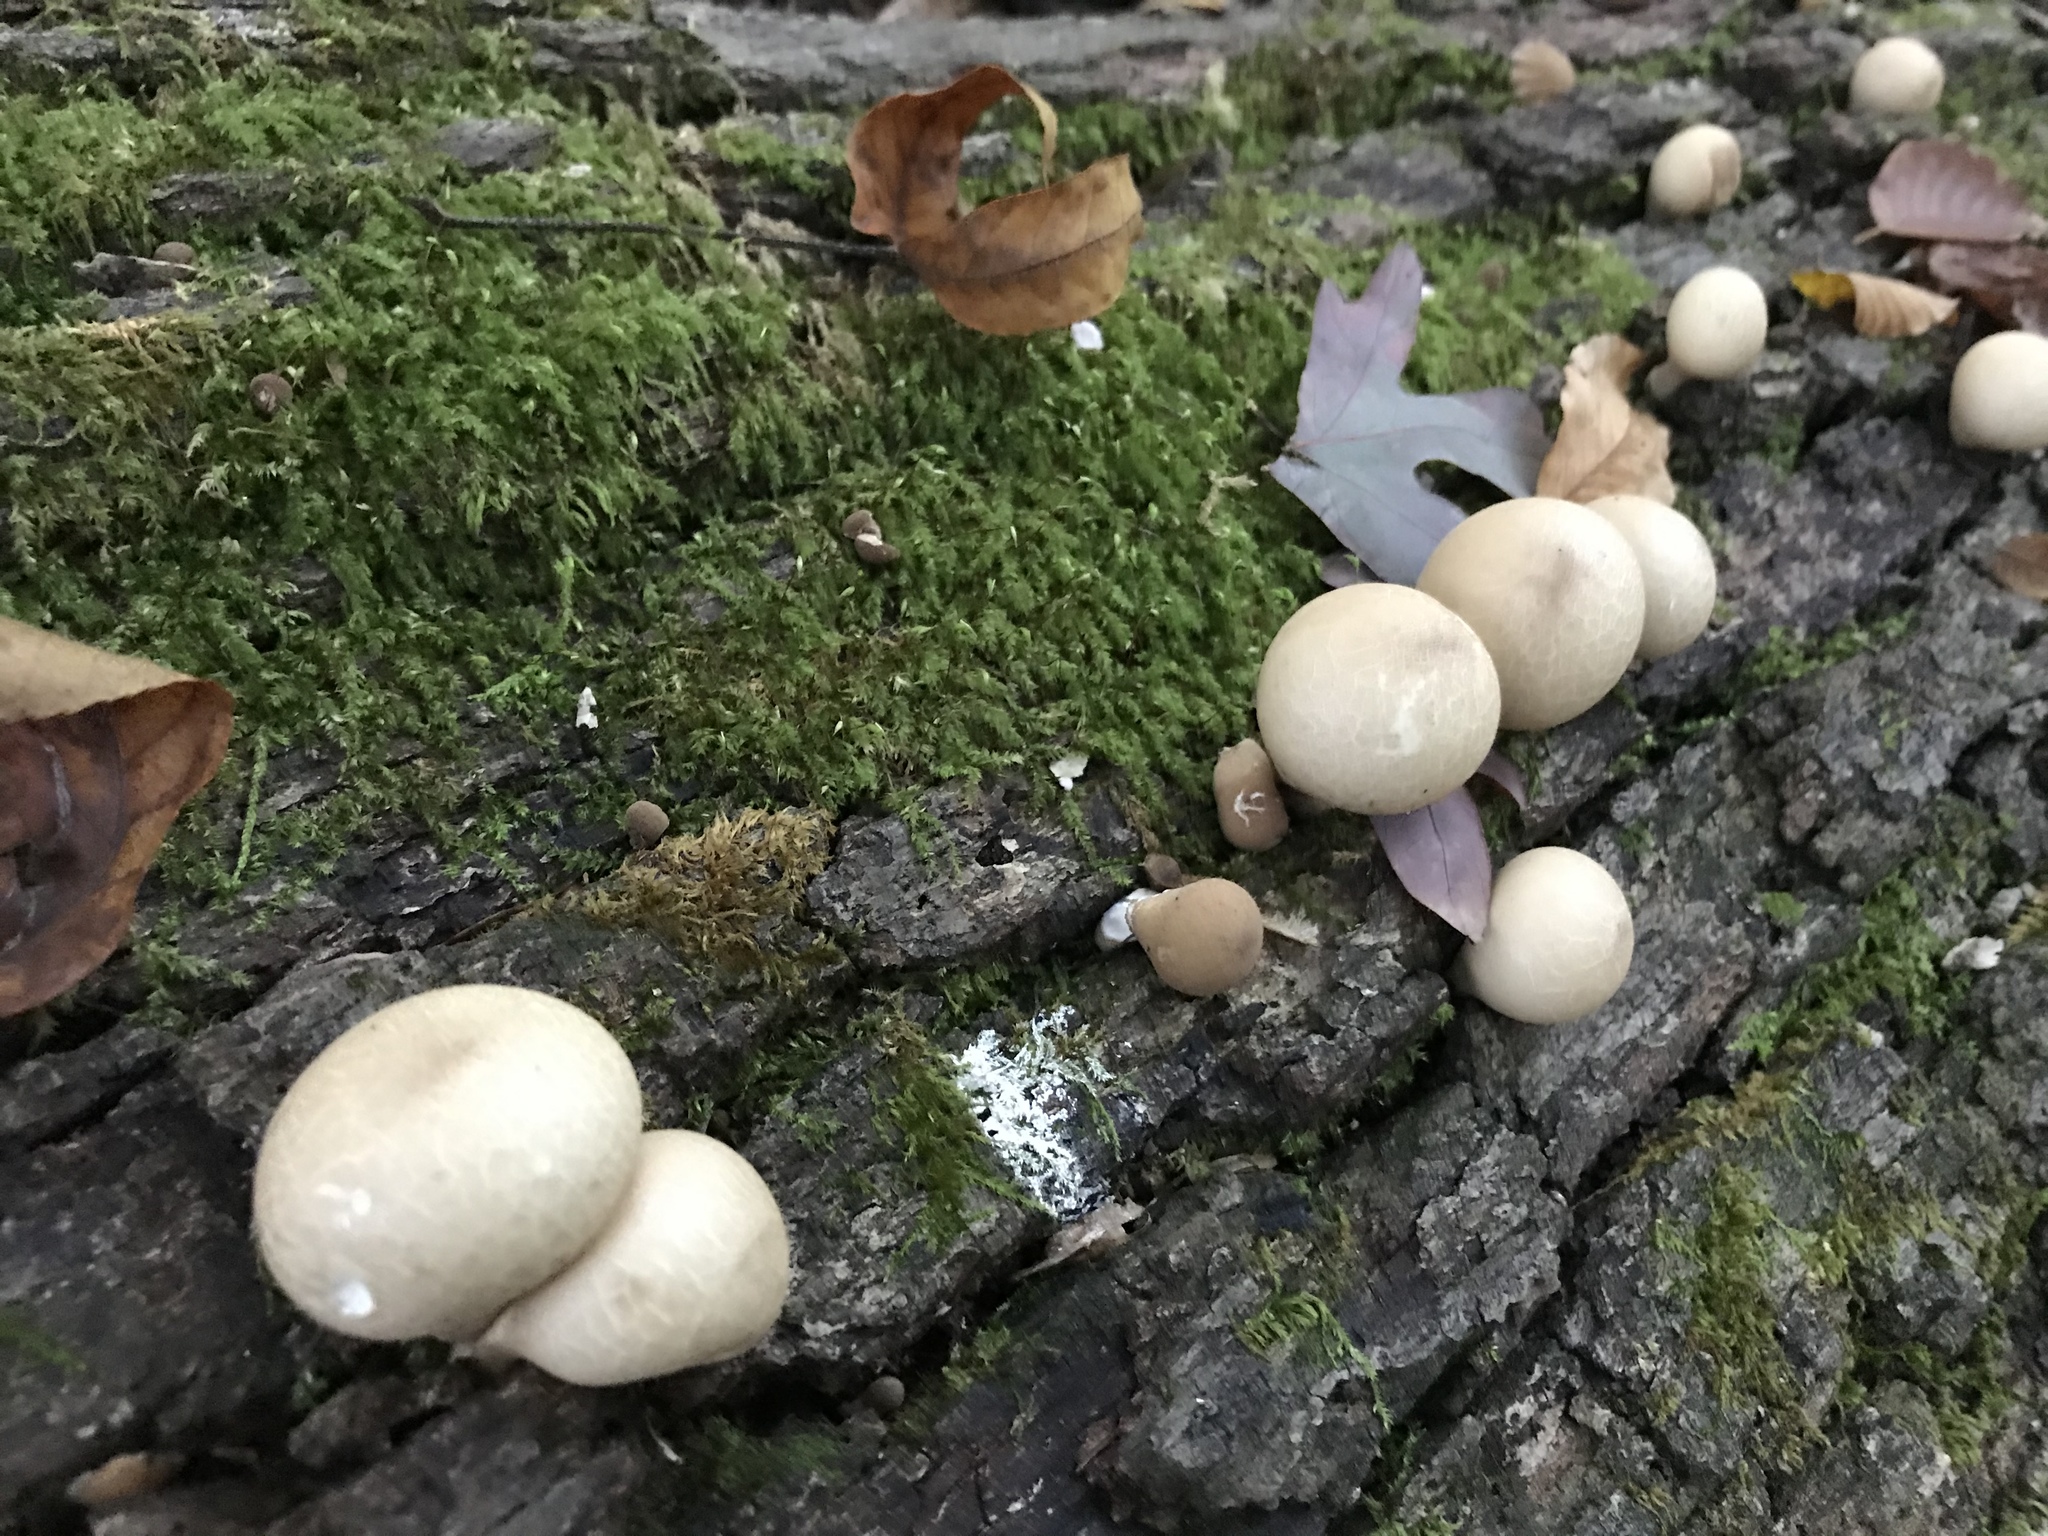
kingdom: Fungi
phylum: Basidiomycota
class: Agaricomycetes
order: Agaricales
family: Lycoperdaceae
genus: Apioperdon
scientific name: Apioperdon pyriforme
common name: Pear-shaped puffball
